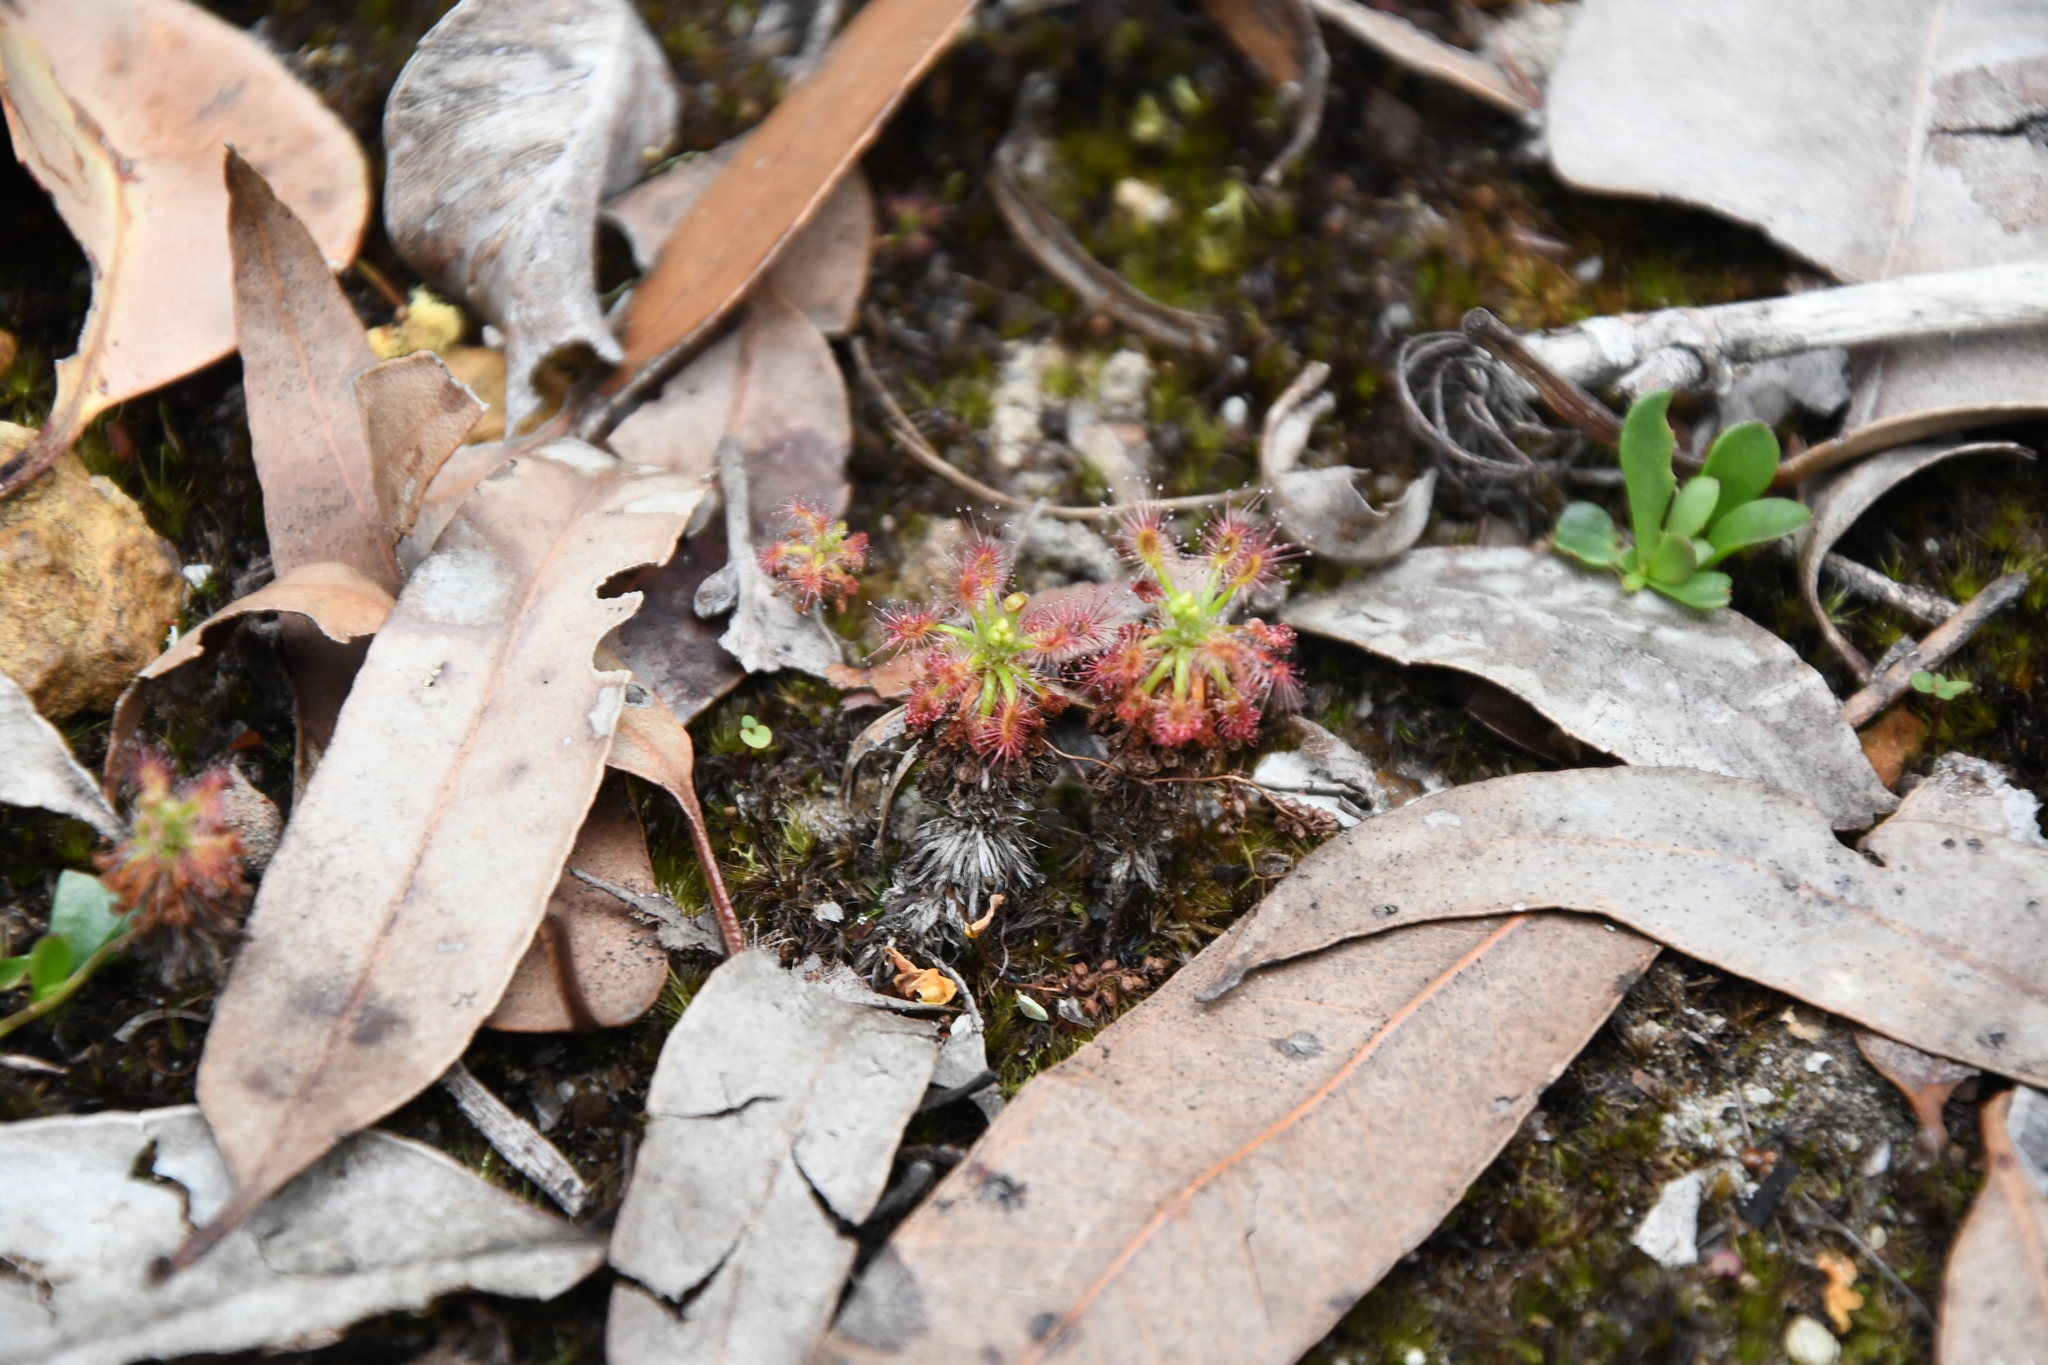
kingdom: Plantae
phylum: Tracheophyta
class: Magnoliopsida
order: Caryophyllales
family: Droseraceae
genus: Drosera
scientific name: Drosera paleacea
